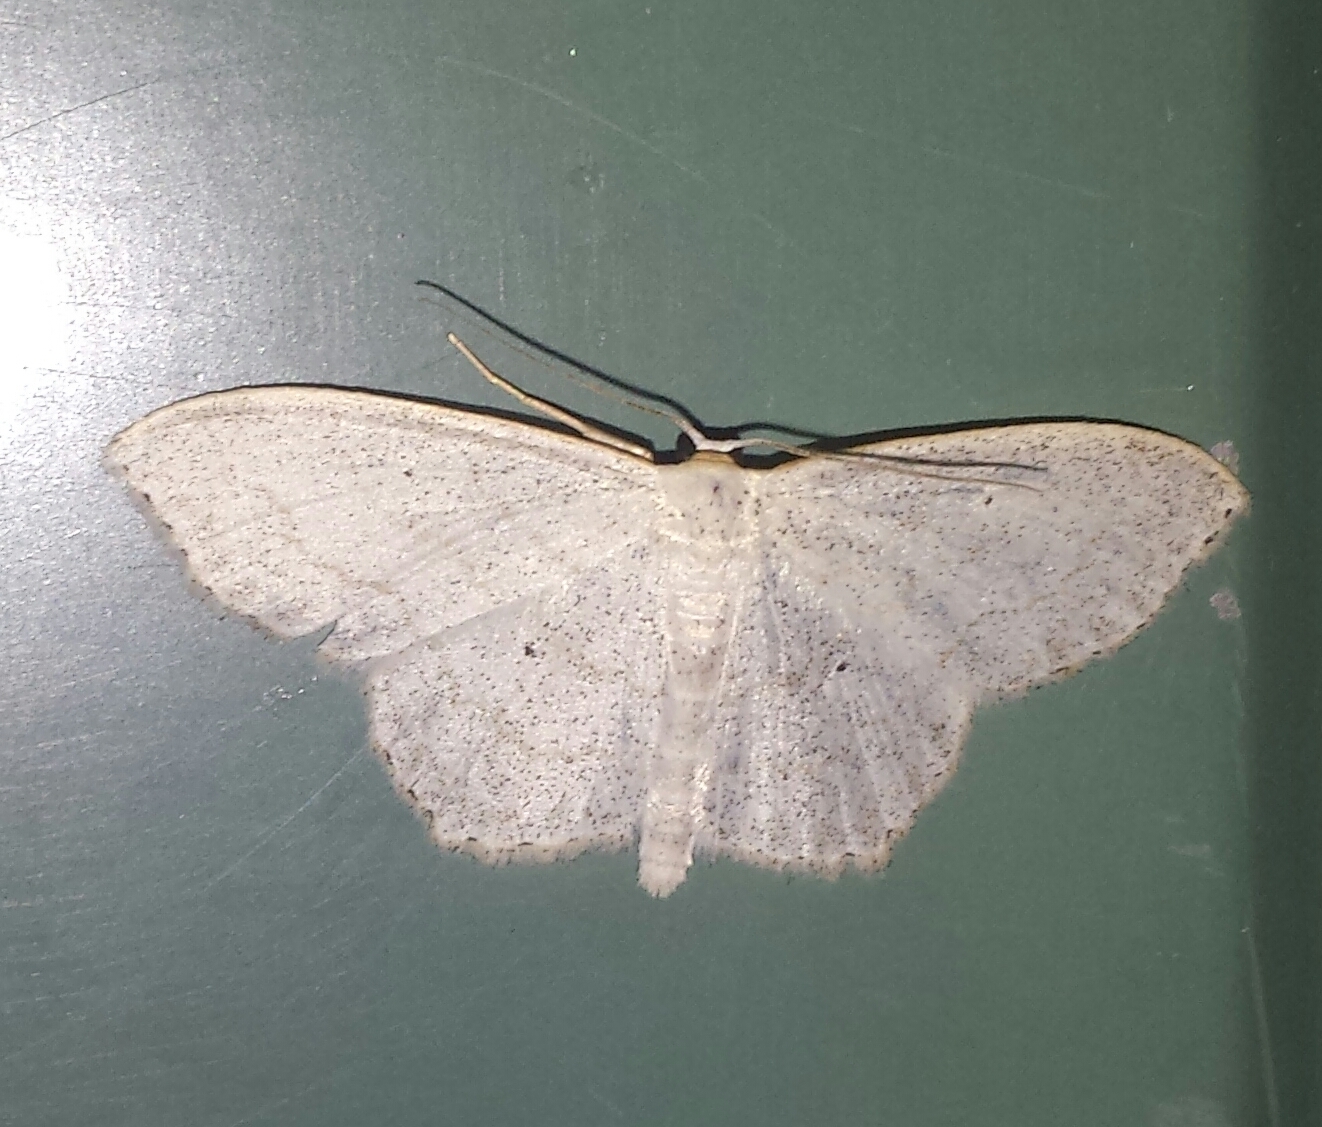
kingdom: Animalia
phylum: Arthropoda
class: Insecta
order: Lepidoptera
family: Geometridae
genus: Scopula
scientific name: Scopula limboundata
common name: Large lace border
